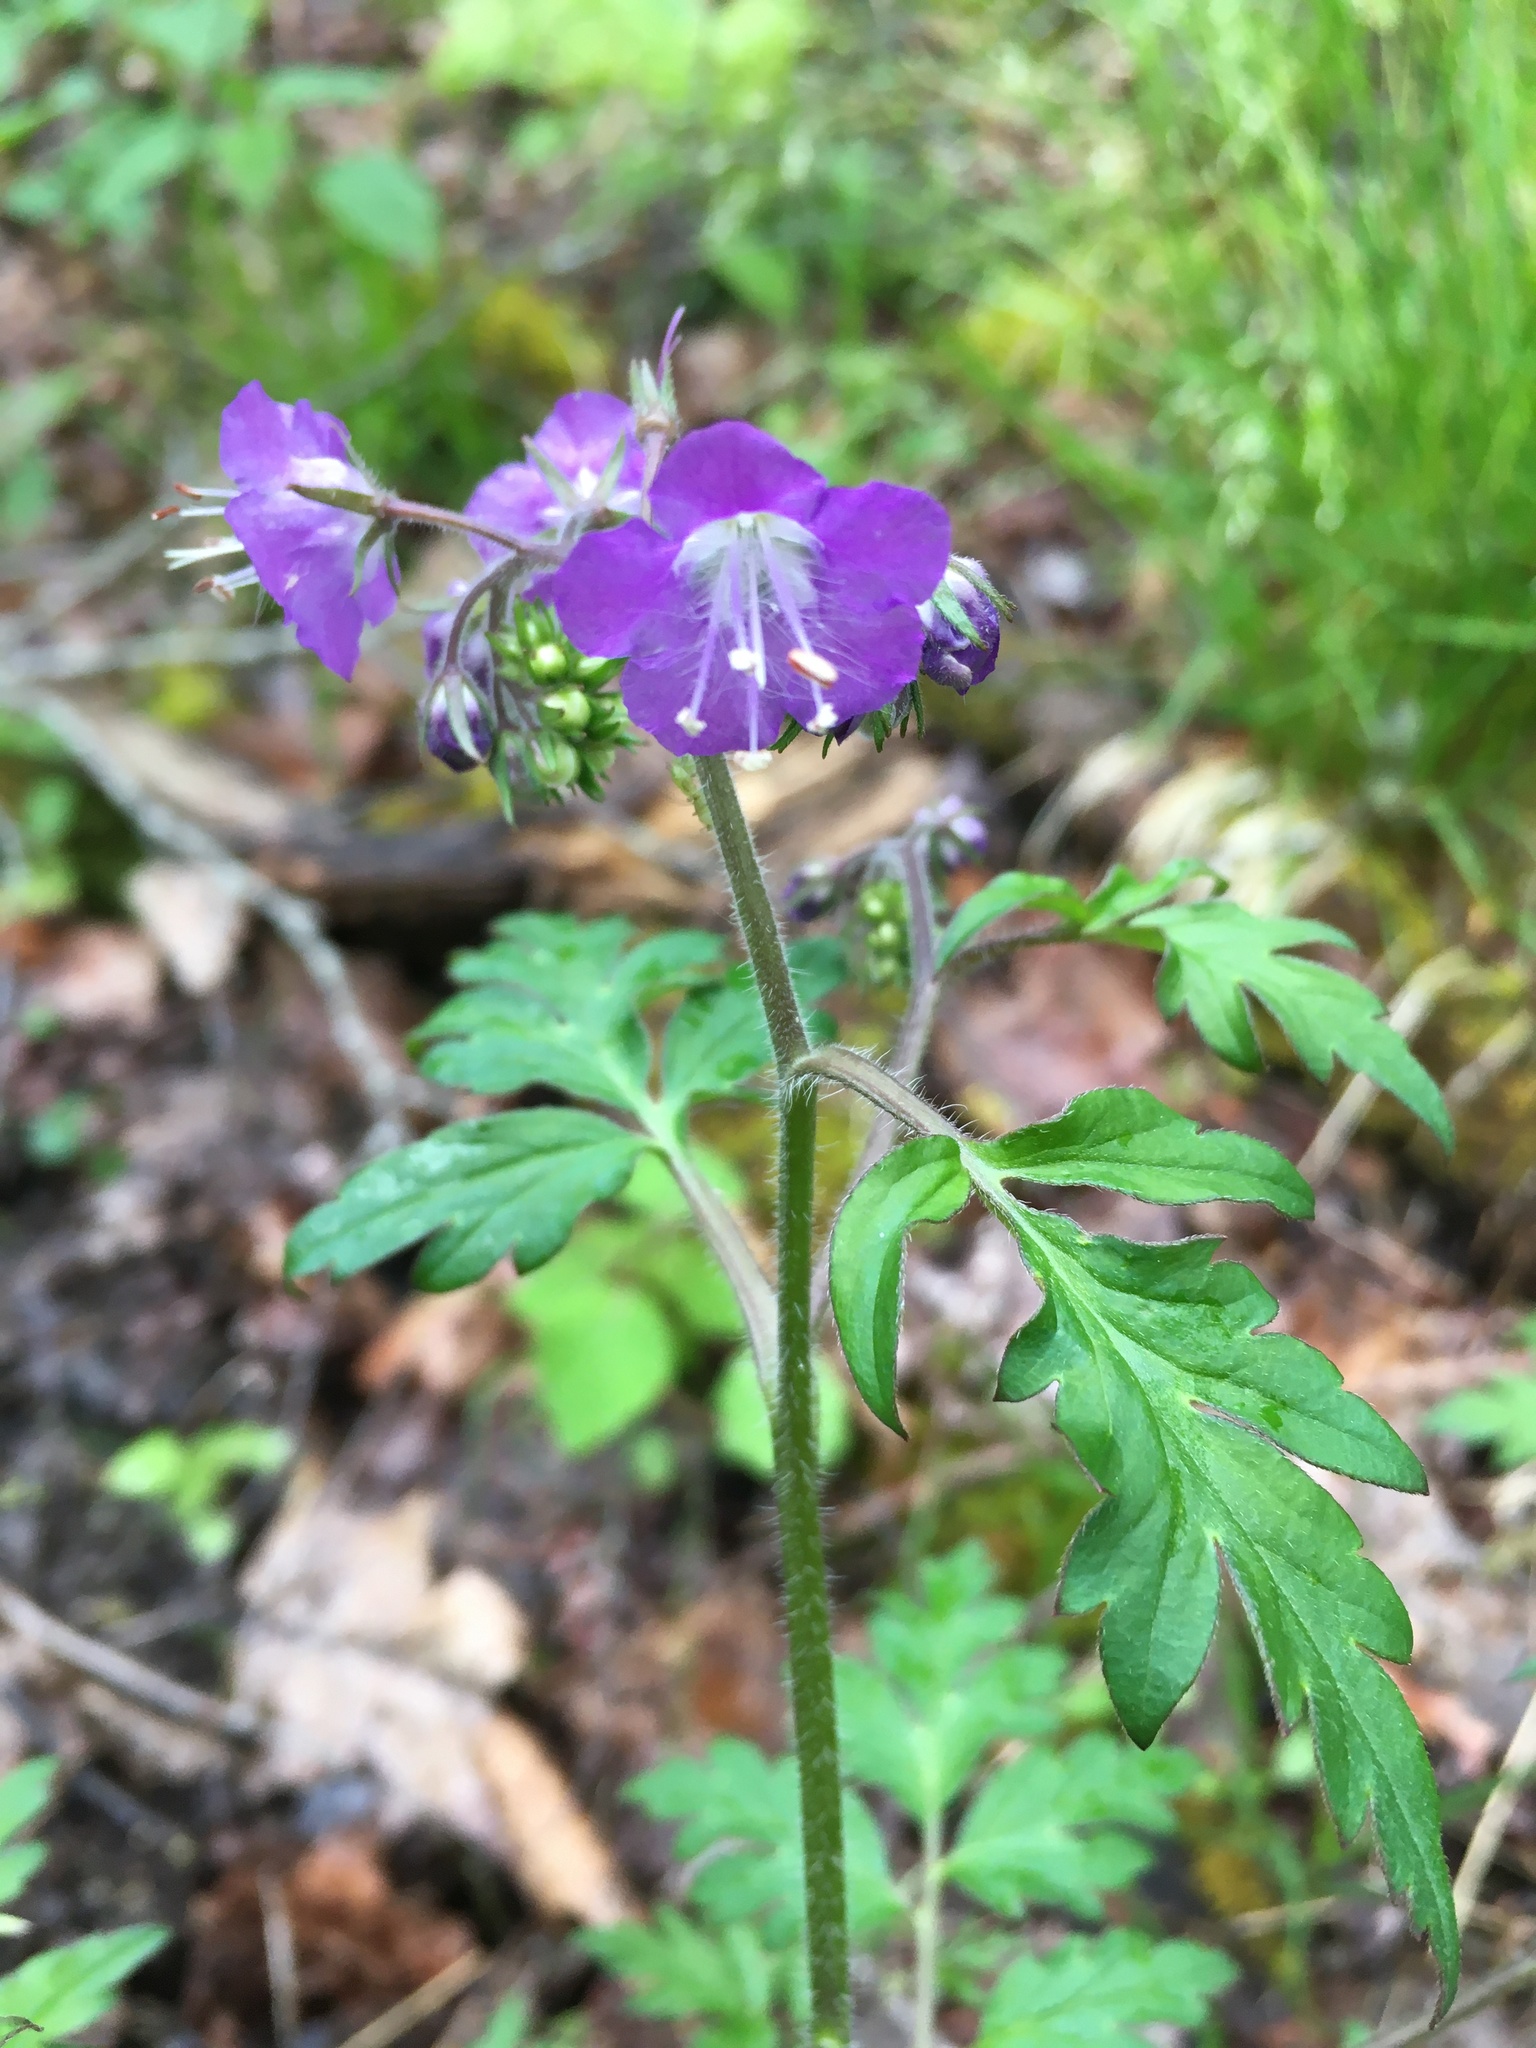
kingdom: Plantae
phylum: Tracheophyta
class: Magnoliopsida
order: Boraginales
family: Hydrophyllaceae
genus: Phacelia
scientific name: Phacelia bipinnatifida
